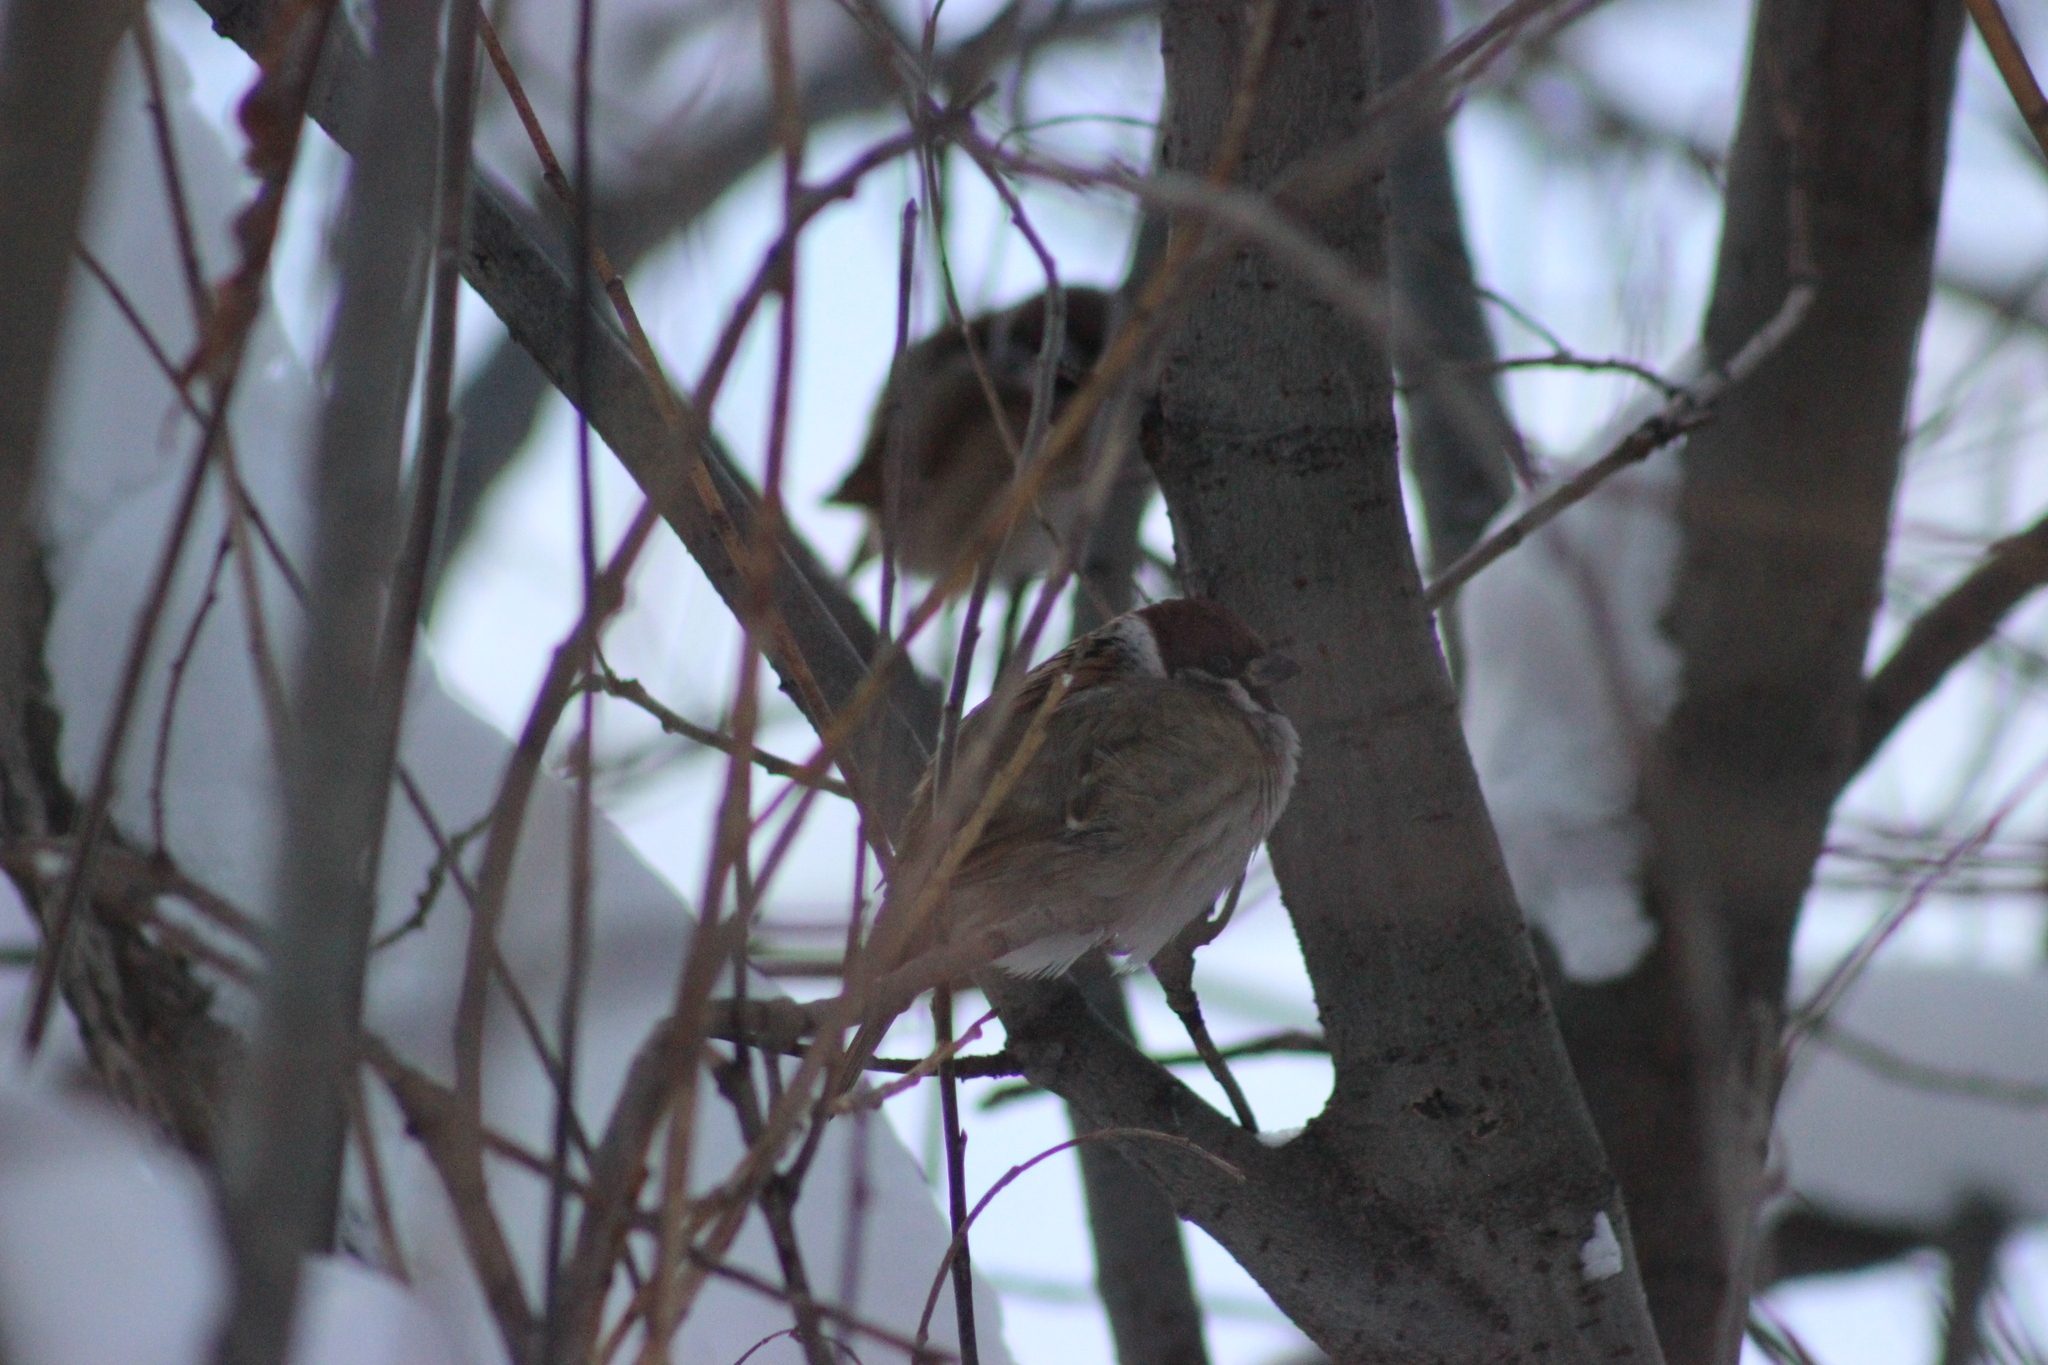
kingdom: Animalia
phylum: Chordata
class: Aves
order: Passeriformes
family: Passeridae
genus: Passer
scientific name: Passer montanus
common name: Eurasian tree sparrow
